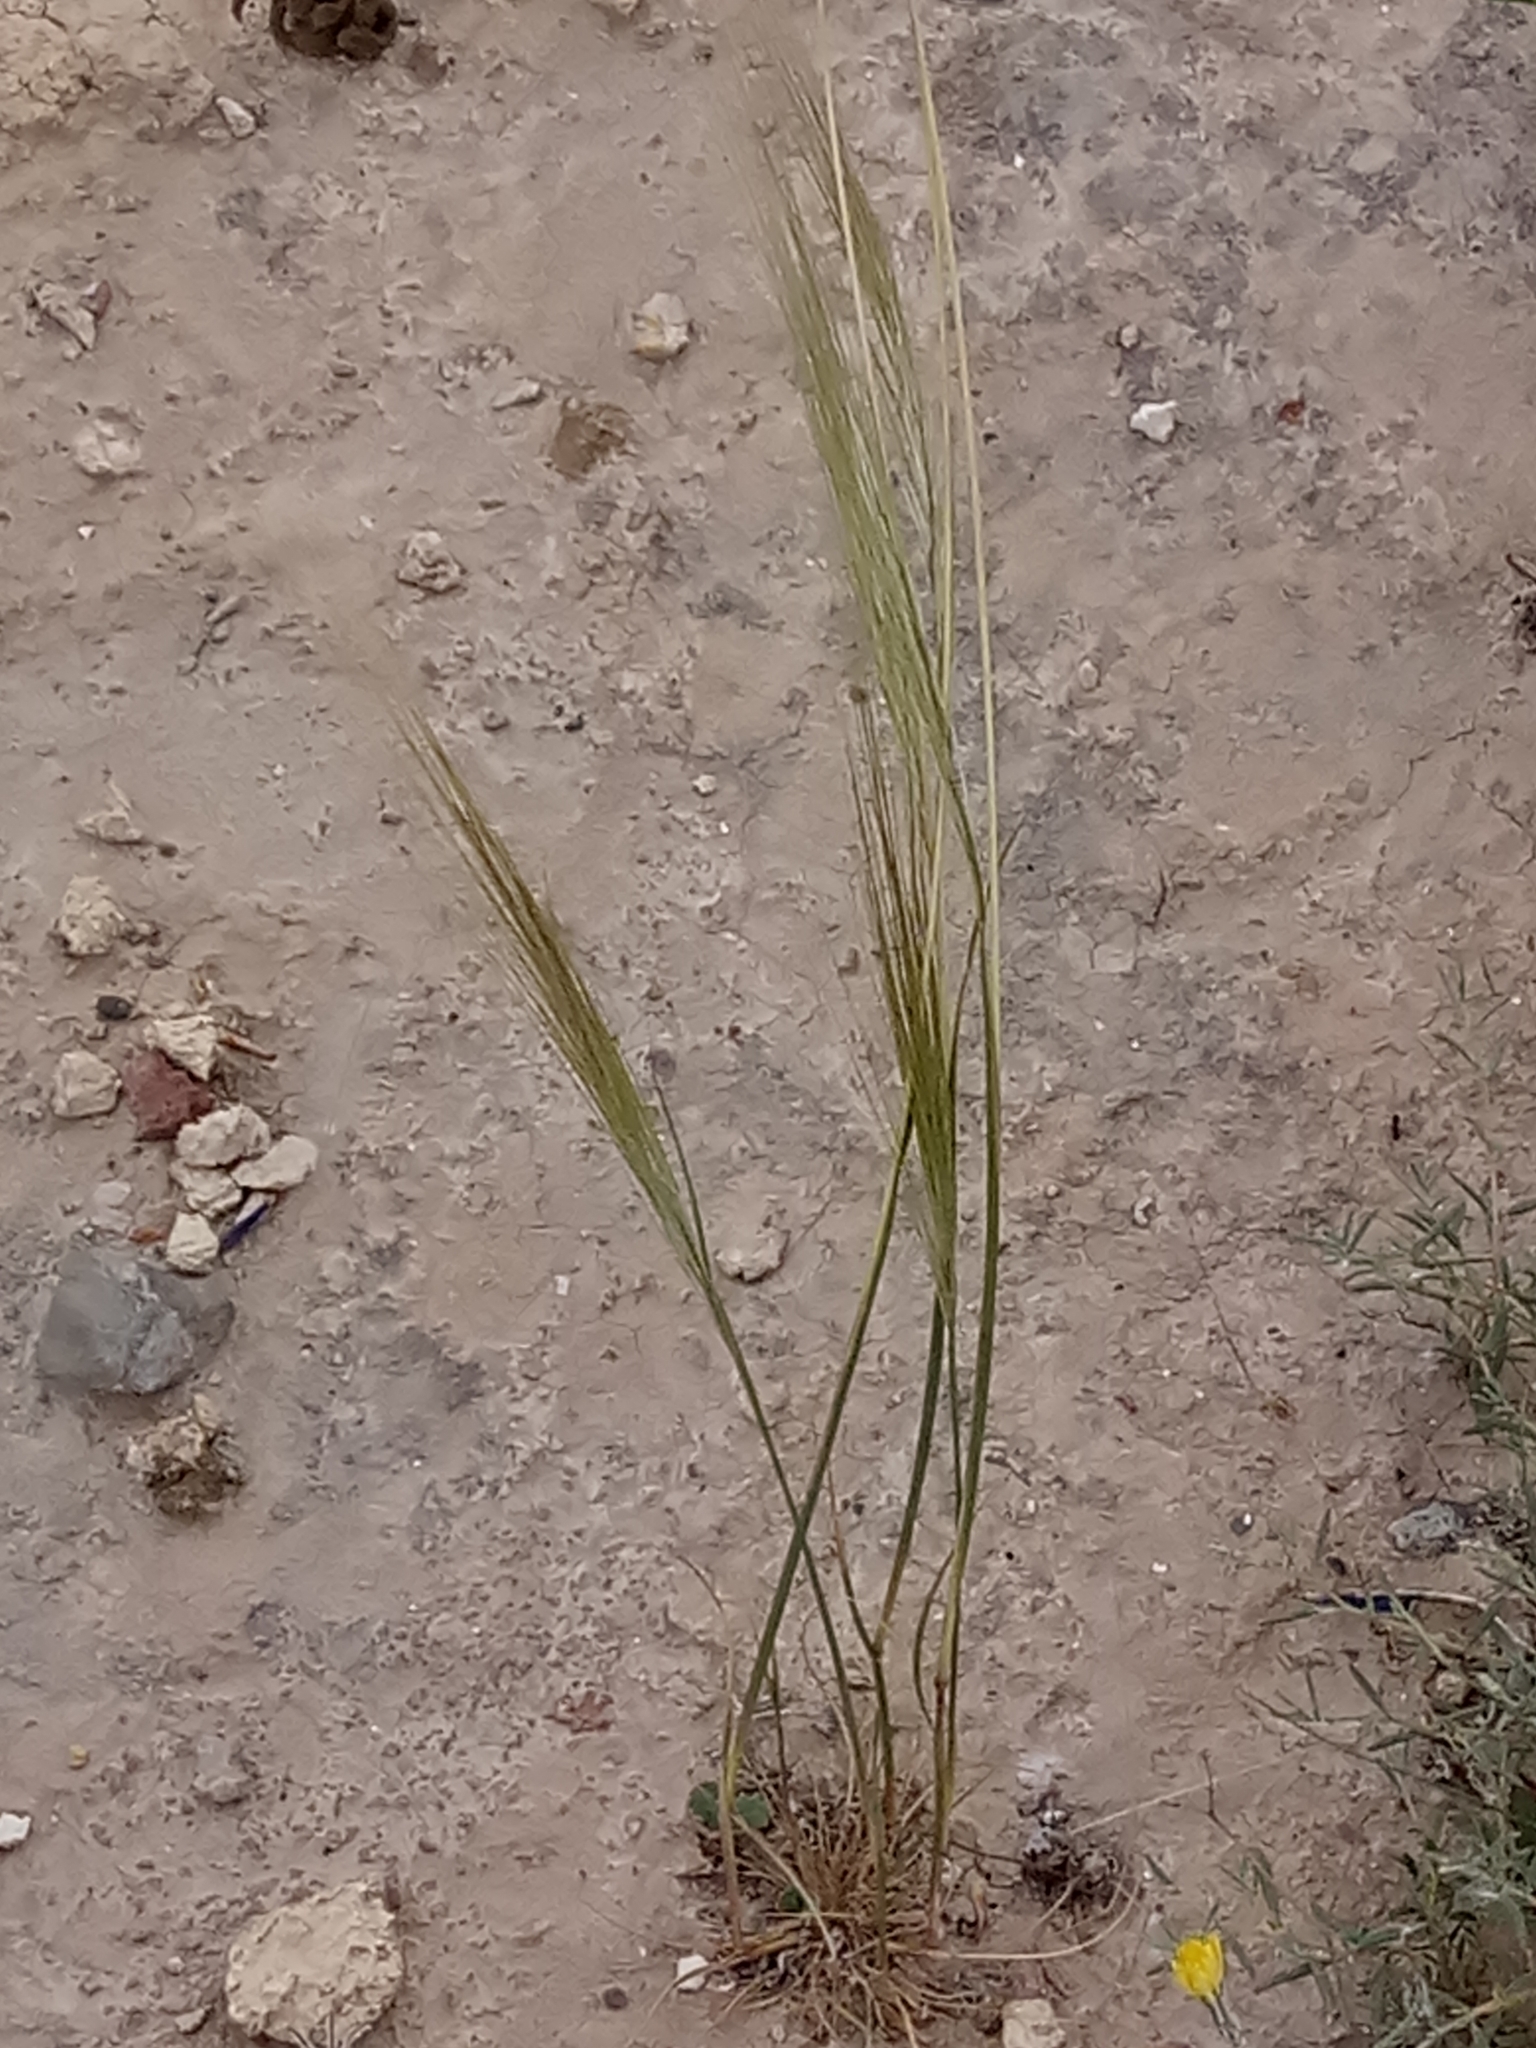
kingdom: Plantae
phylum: Tracheophyta
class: Liliopsida
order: Poales
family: Poaceae
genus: Stipellula
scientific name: Stipellula capensis
